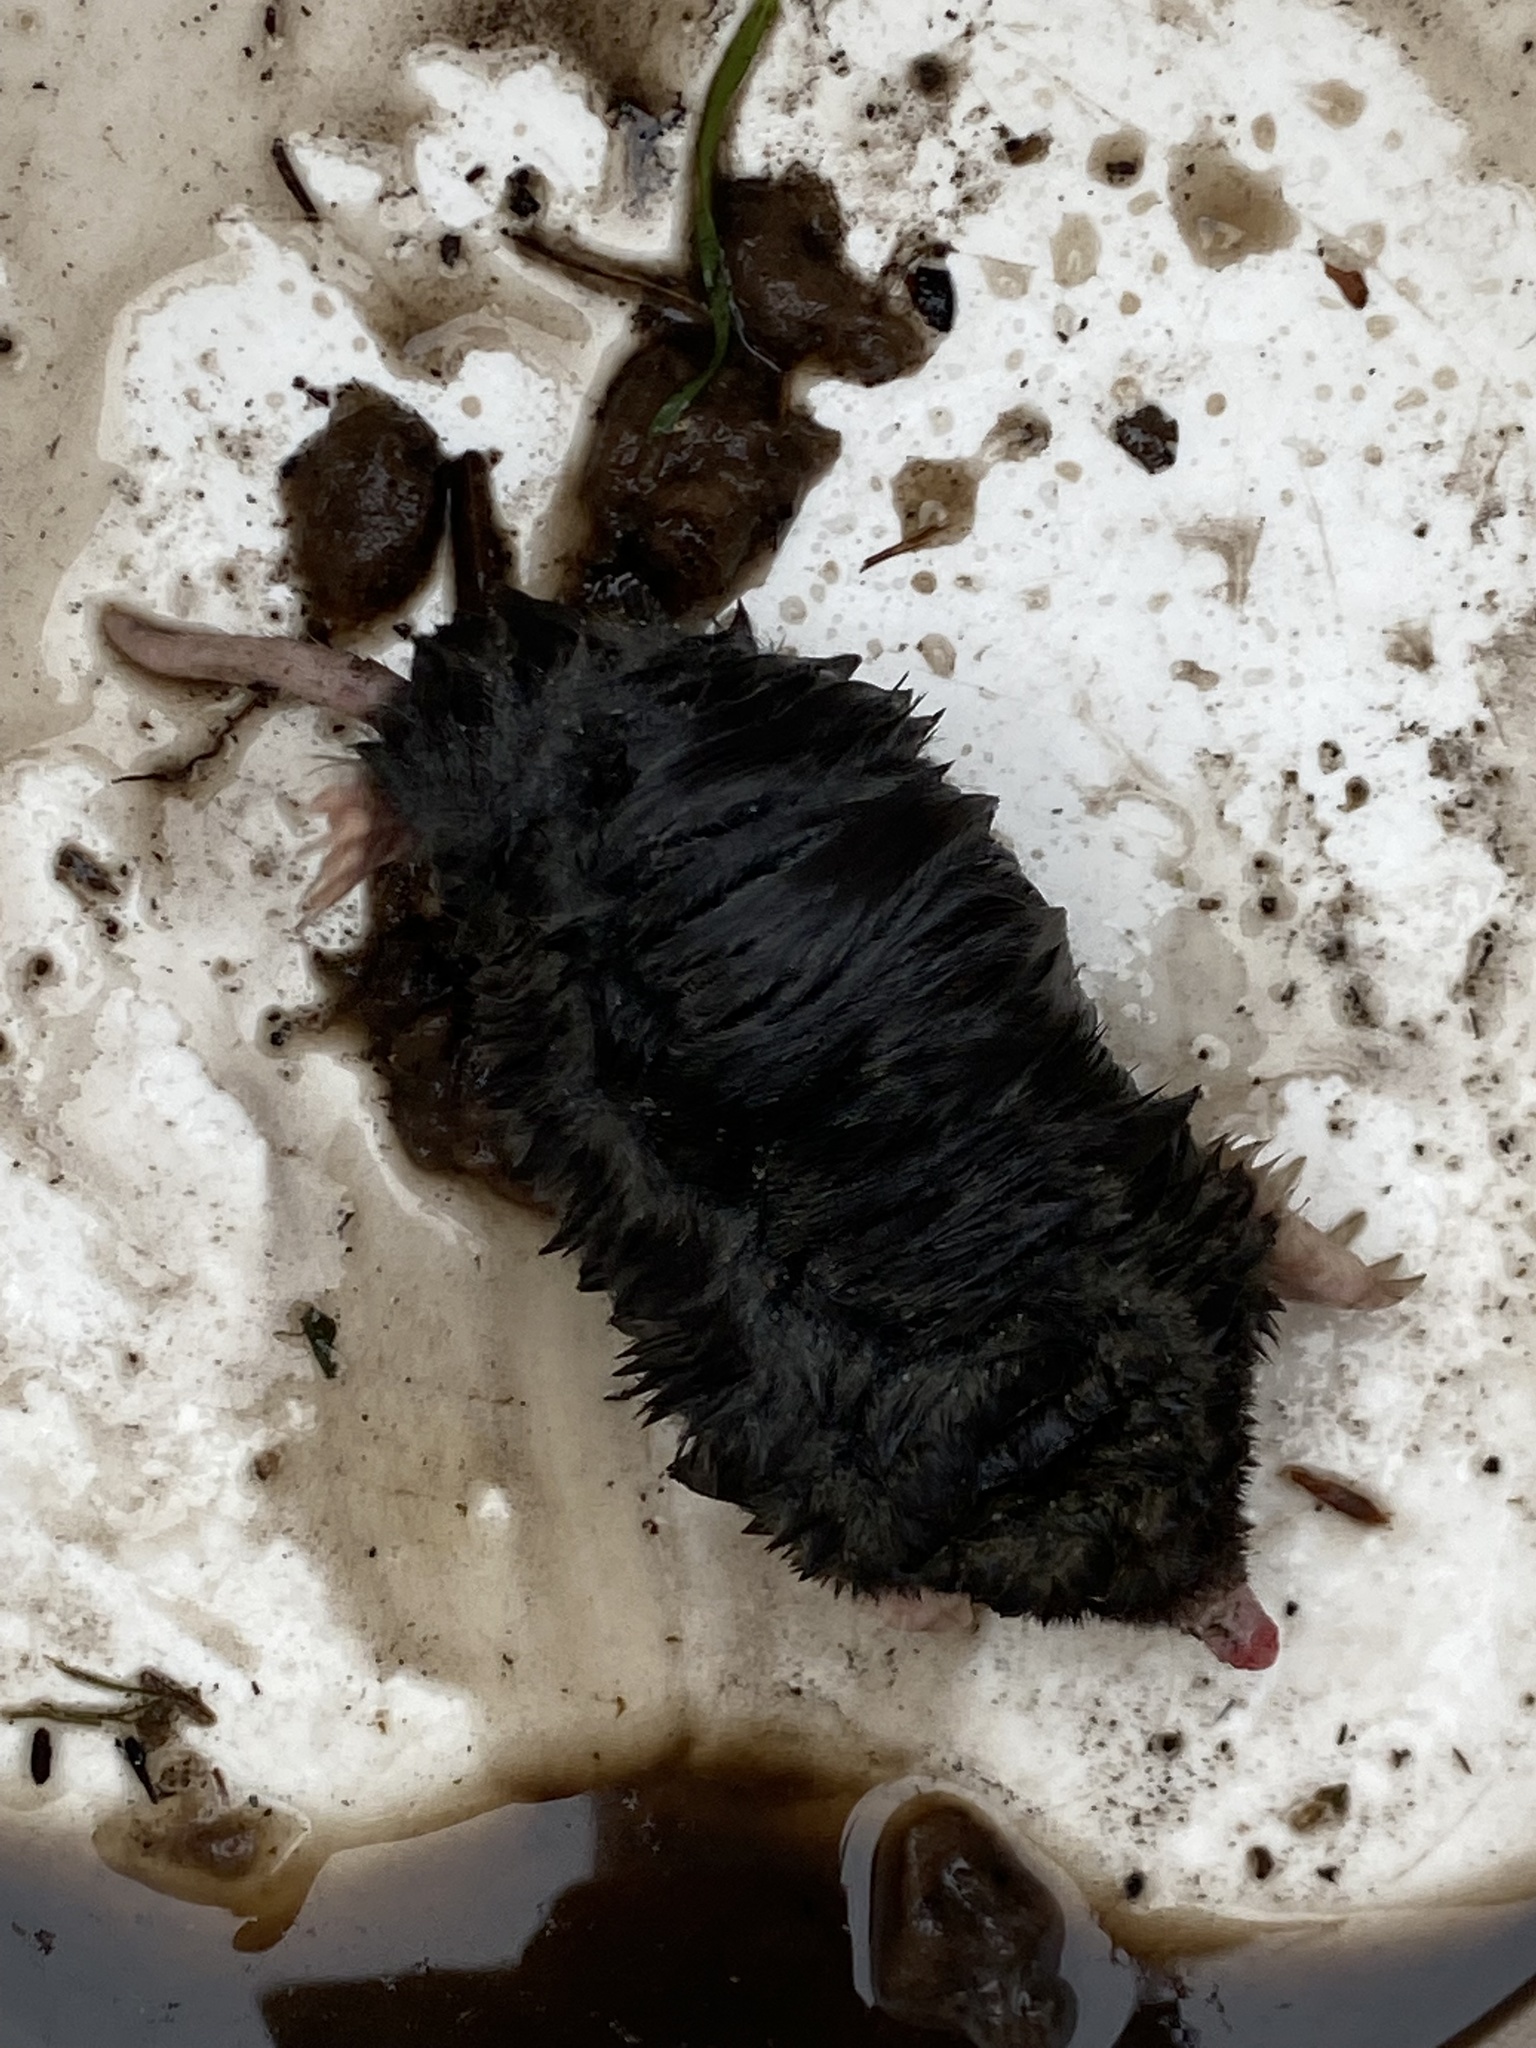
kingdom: Animalia
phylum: Chordata
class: Mammalia
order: Soricomorpha
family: Talpidae
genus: Neurotrichus
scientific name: Neurotrichus gibbsii
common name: American shrew mole
